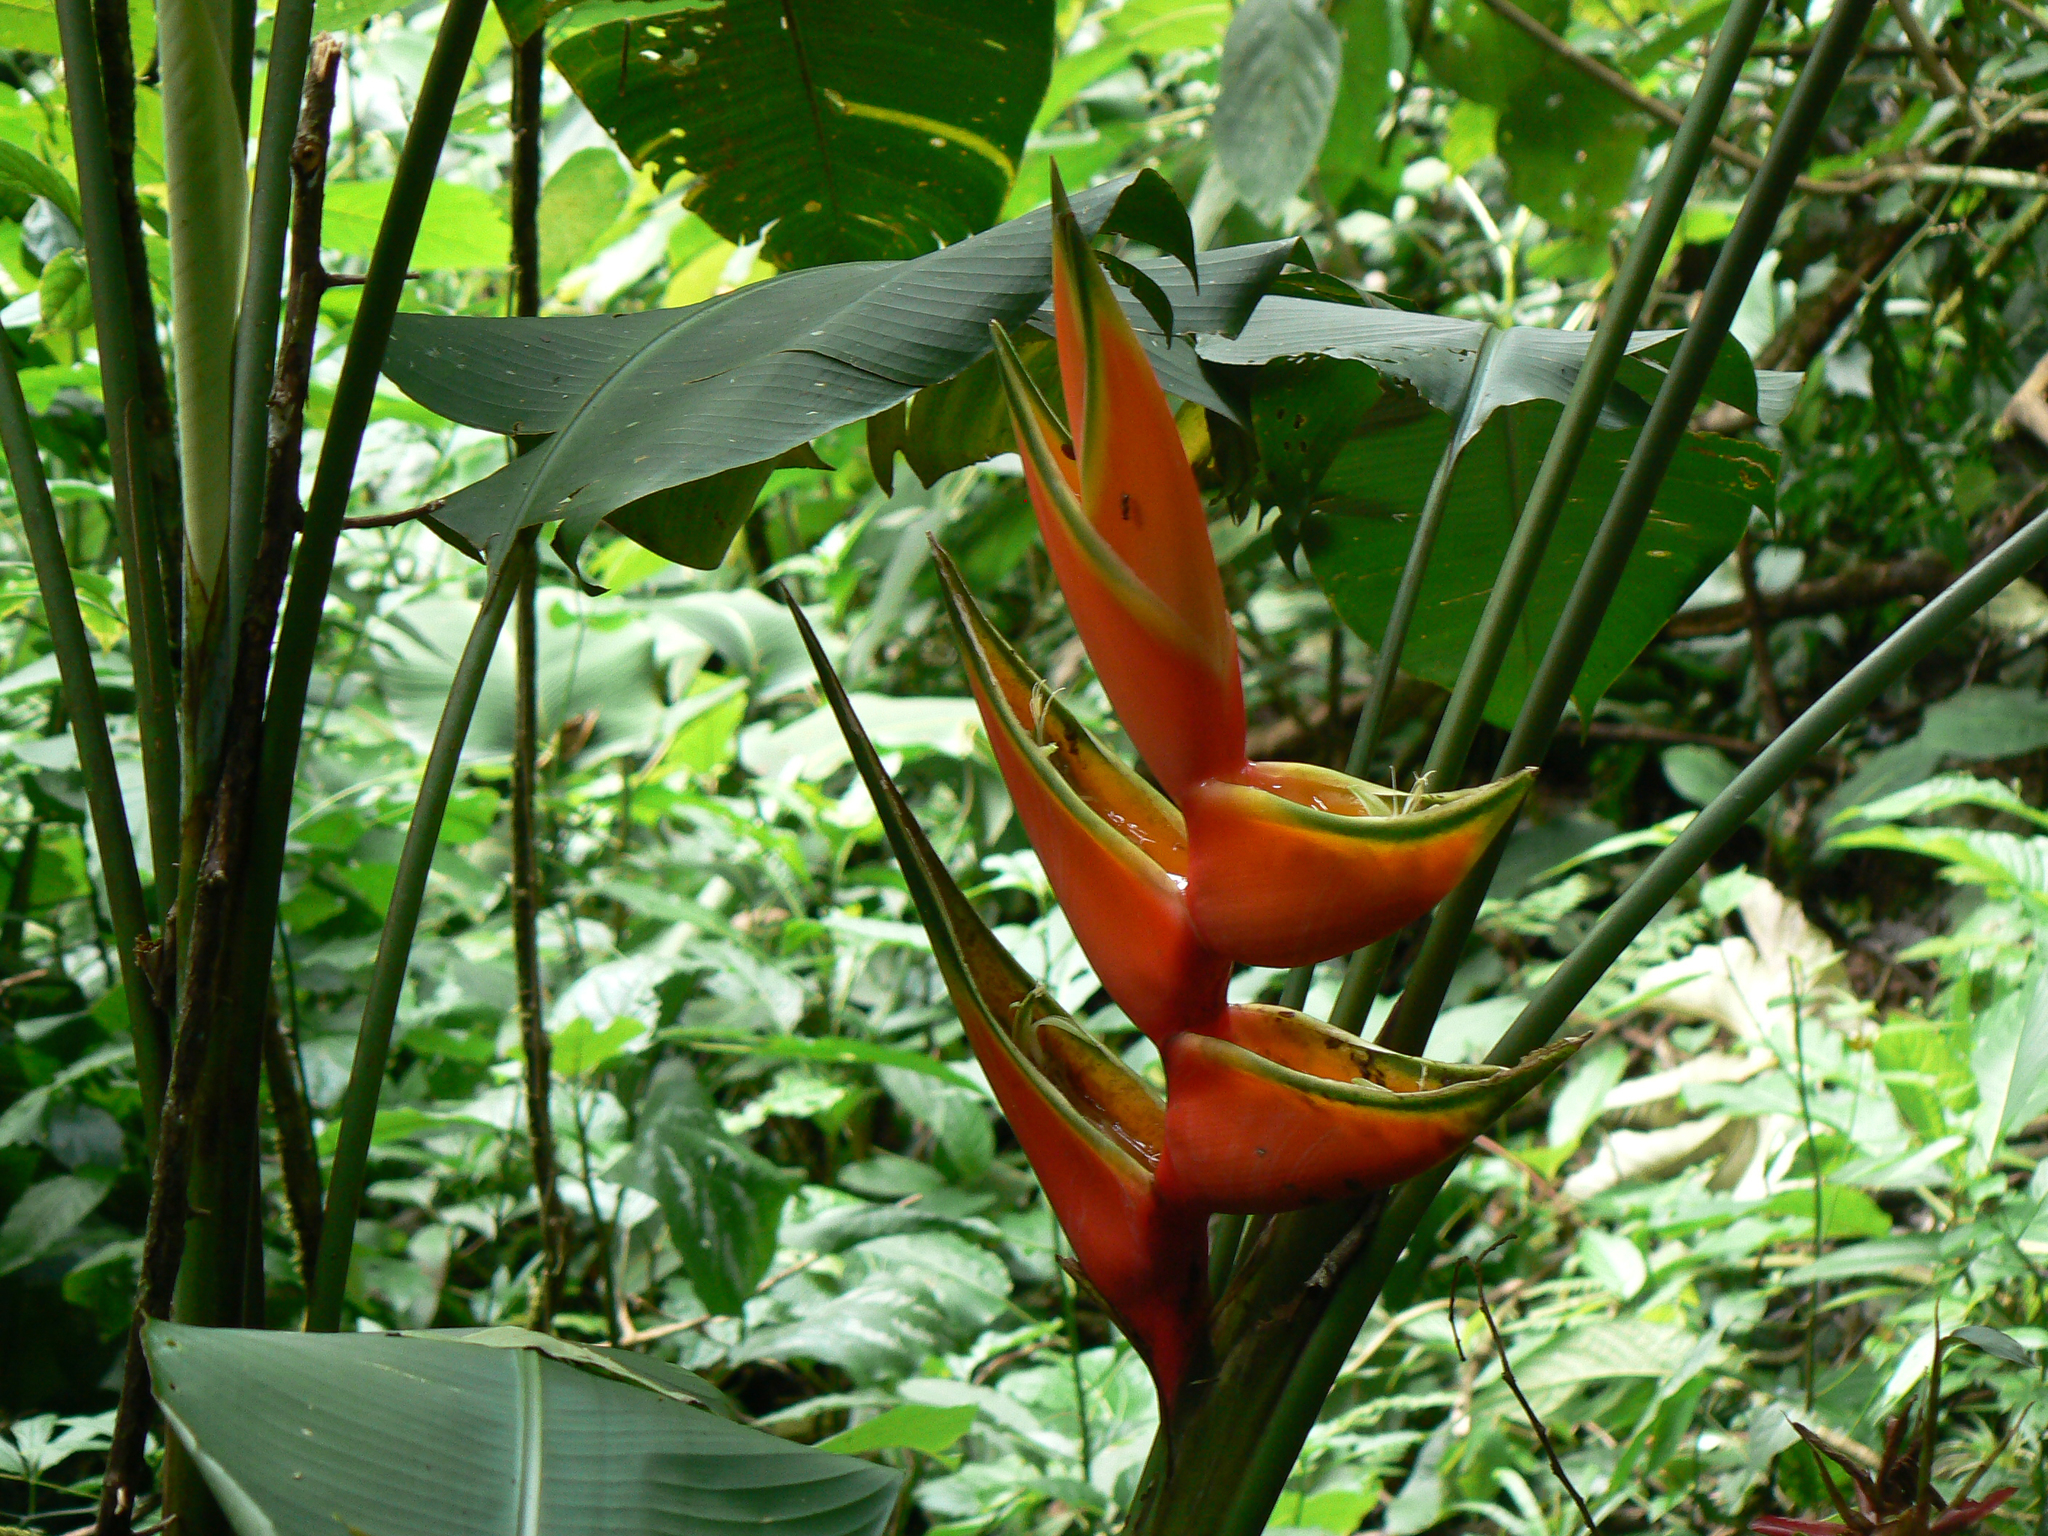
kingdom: Plantae
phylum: Tracheophyta
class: Liliopsida
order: Zingiberales
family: Heliconiaceae
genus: Heliconia
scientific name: Heliconia bihai
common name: Macaw flower
